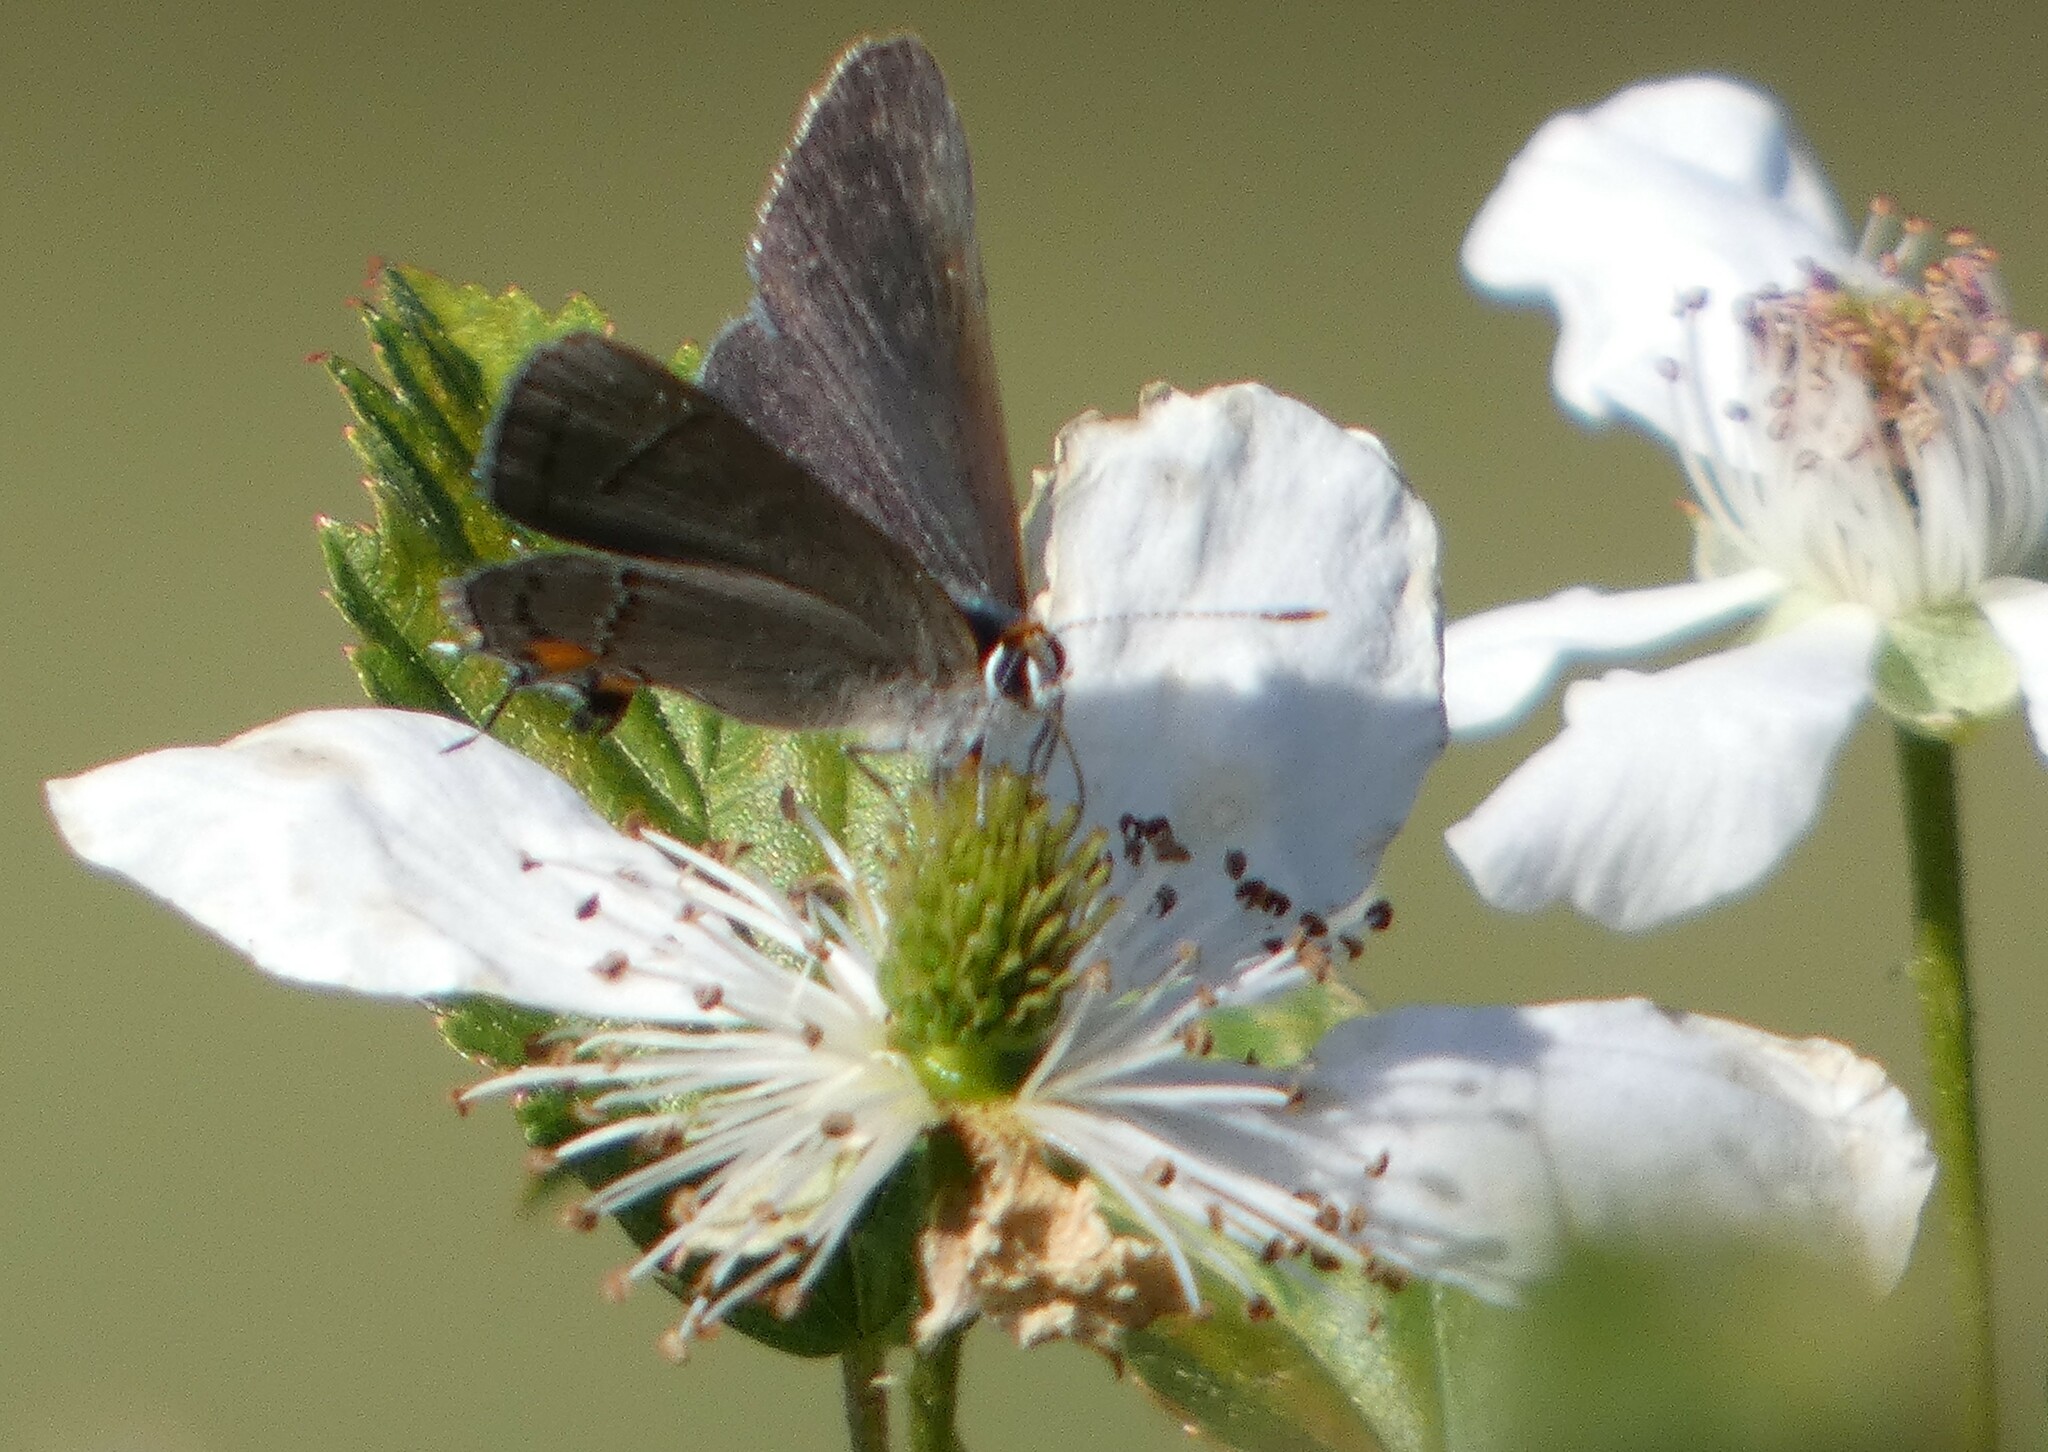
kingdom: Animalia
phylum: Arthropoda
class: Insecta
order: Lepidoptera
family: Lycaenidae
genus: Strymon
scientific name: Strymon melinus
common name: Gray hairstreak
